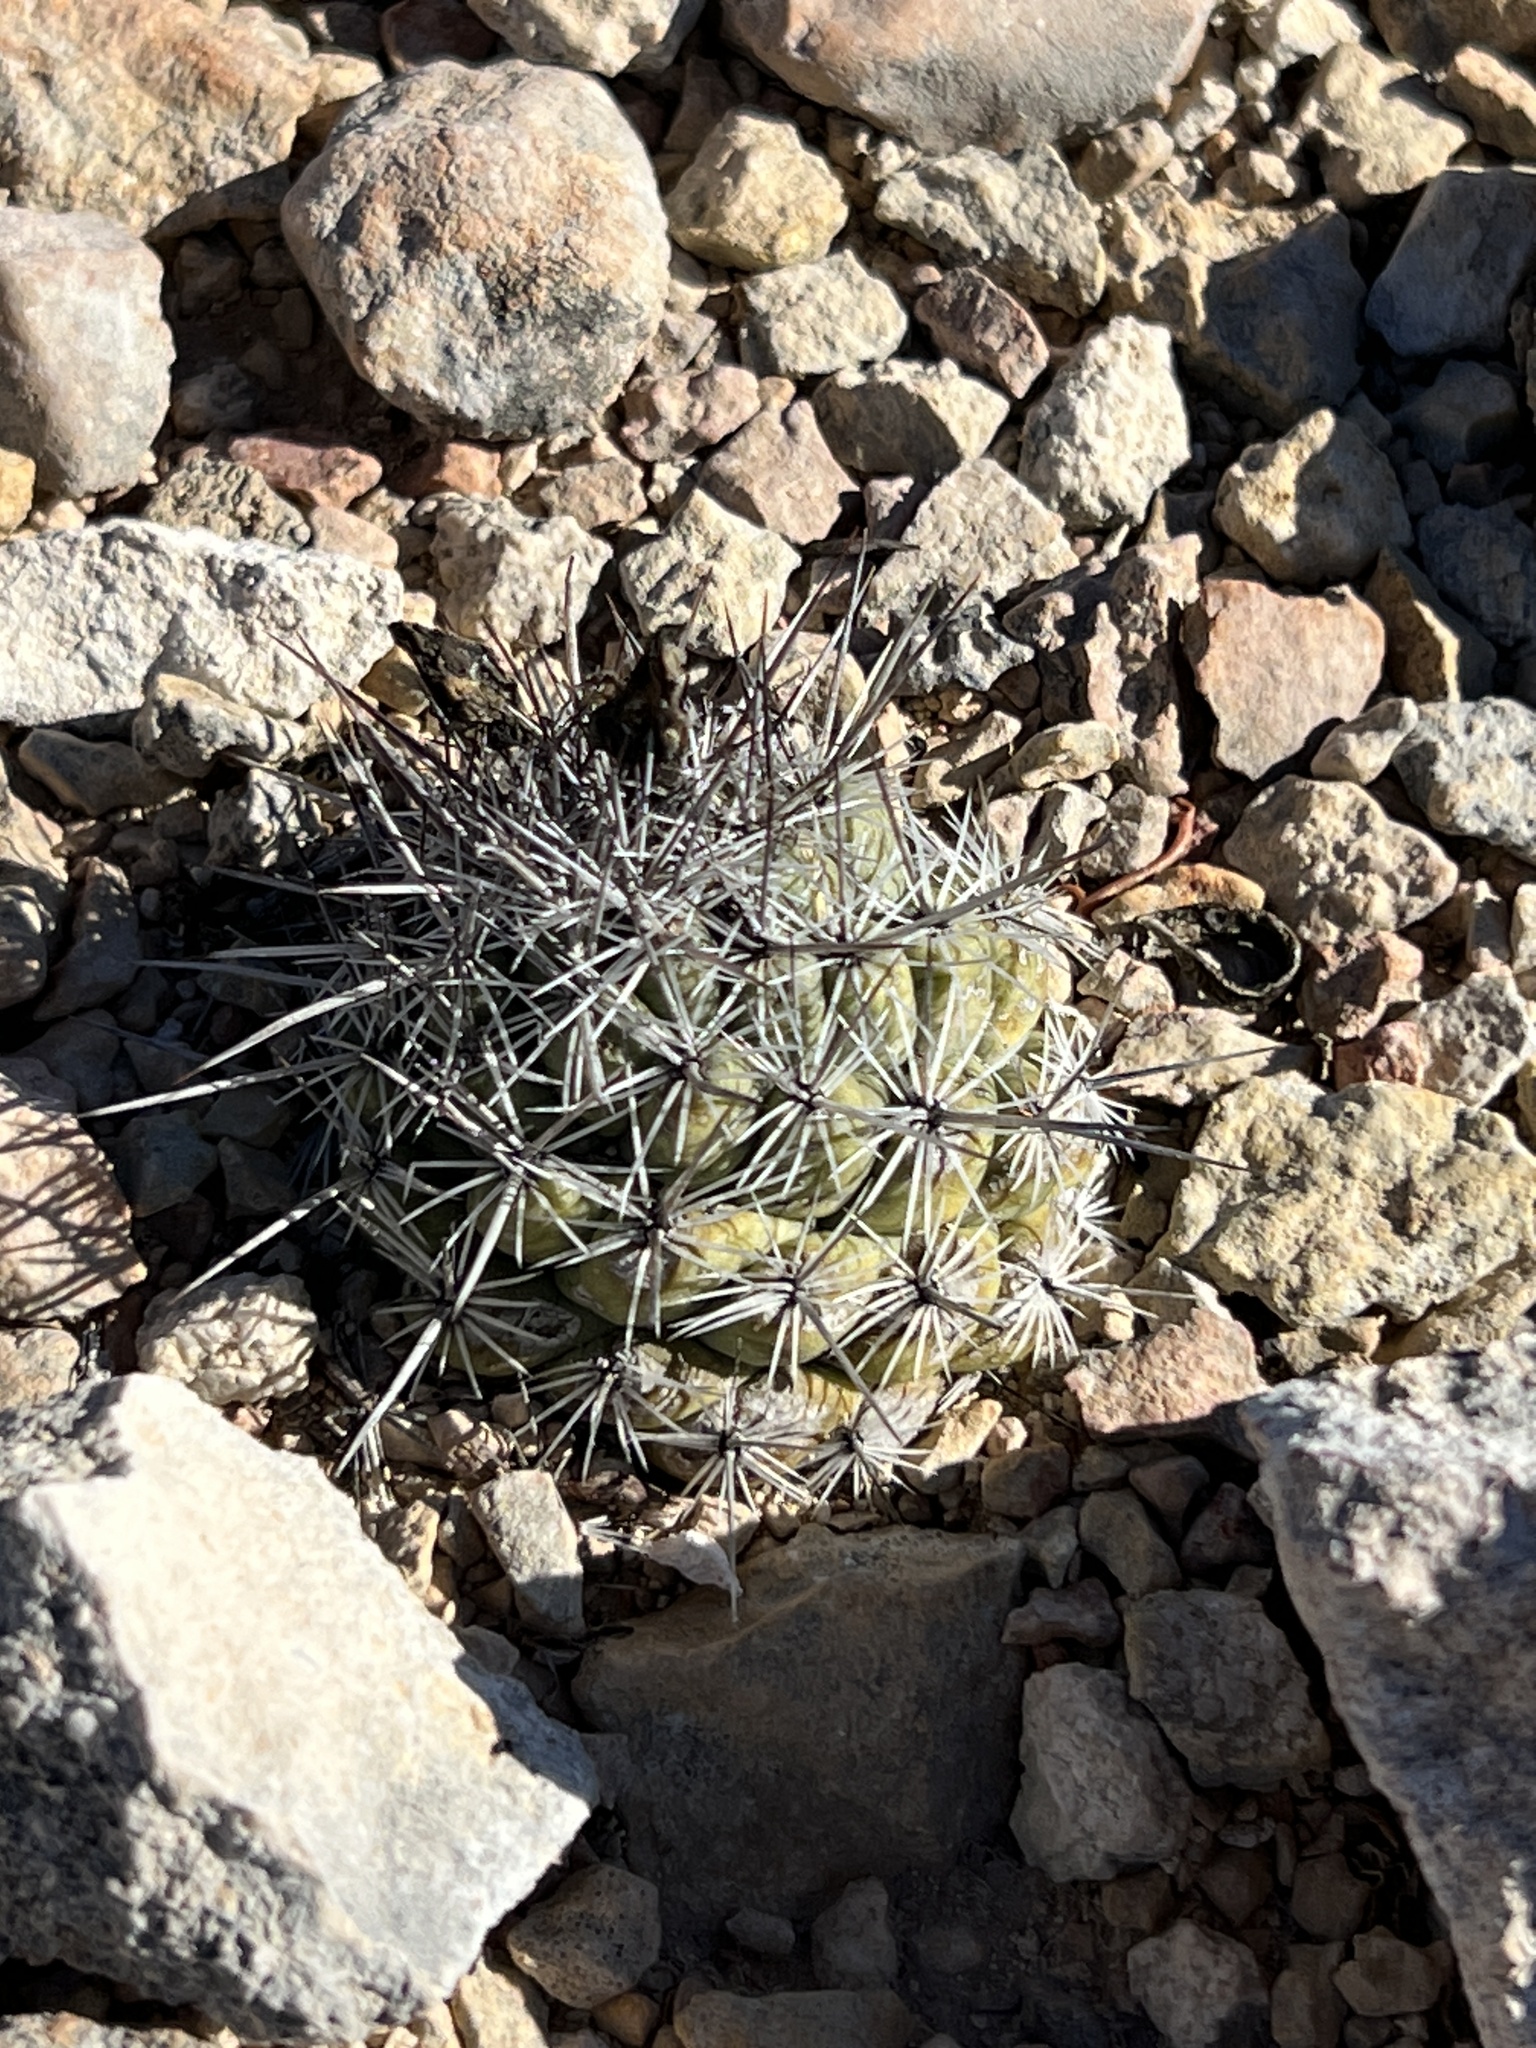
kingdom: Plantae
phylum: Tracheophyta
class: Magnoliopsida
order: Caryophyllales
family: Cactaceae
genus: Cochemiea
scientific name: Cochemiea conoidea
